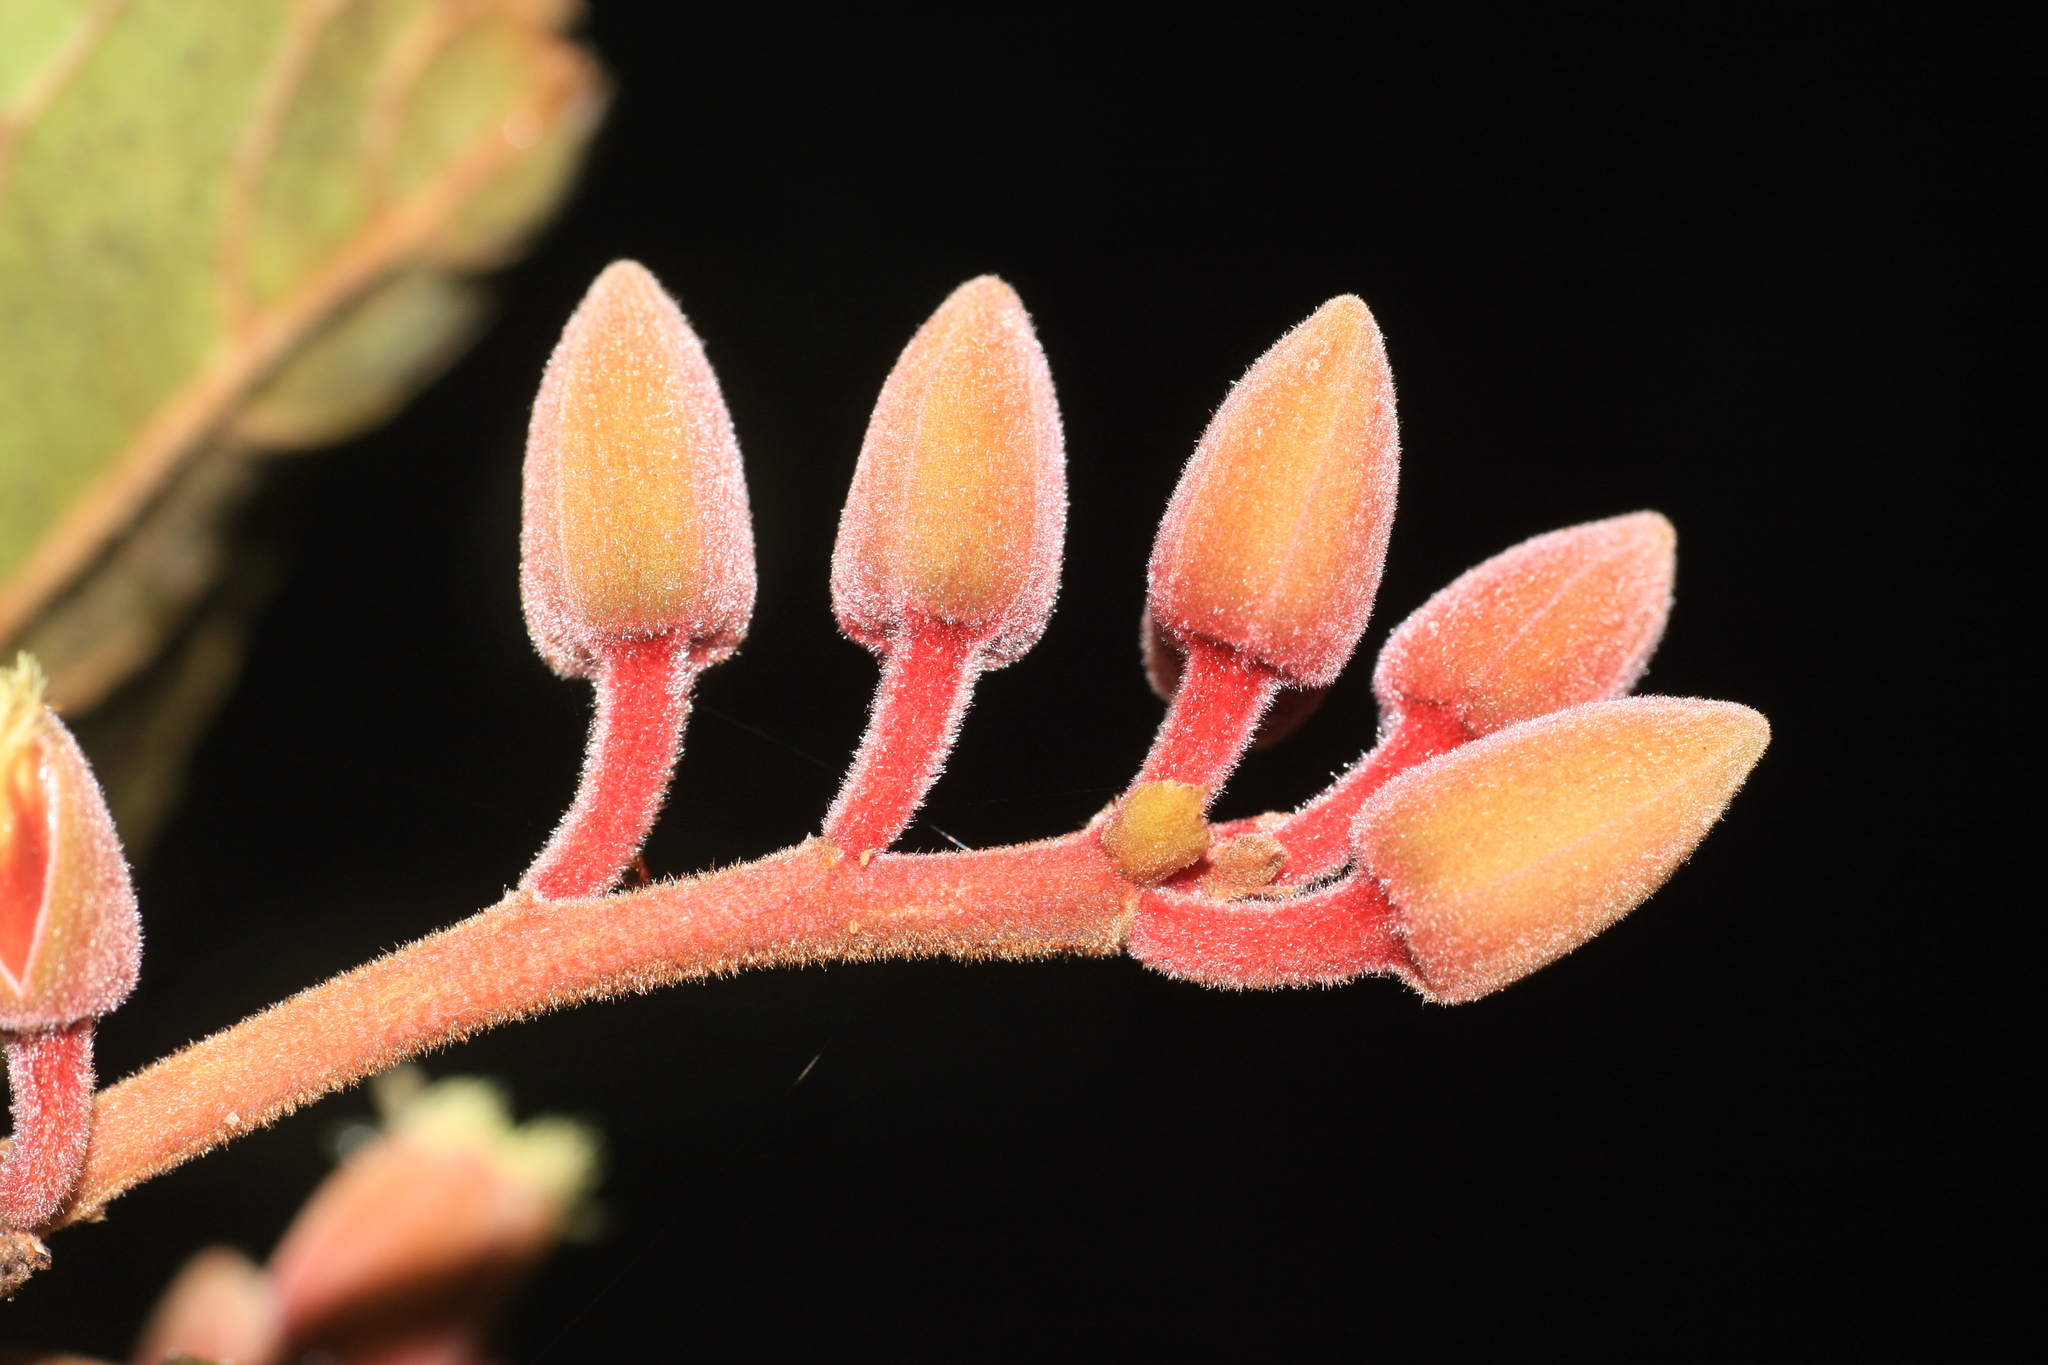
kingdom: Plantae
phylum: Tracheophyta
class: Magnoliopsida
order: Oxalidales
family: Elaeocarpaceae
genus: Elaeocarpus
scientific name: Elaeocarpus tuberculatus
